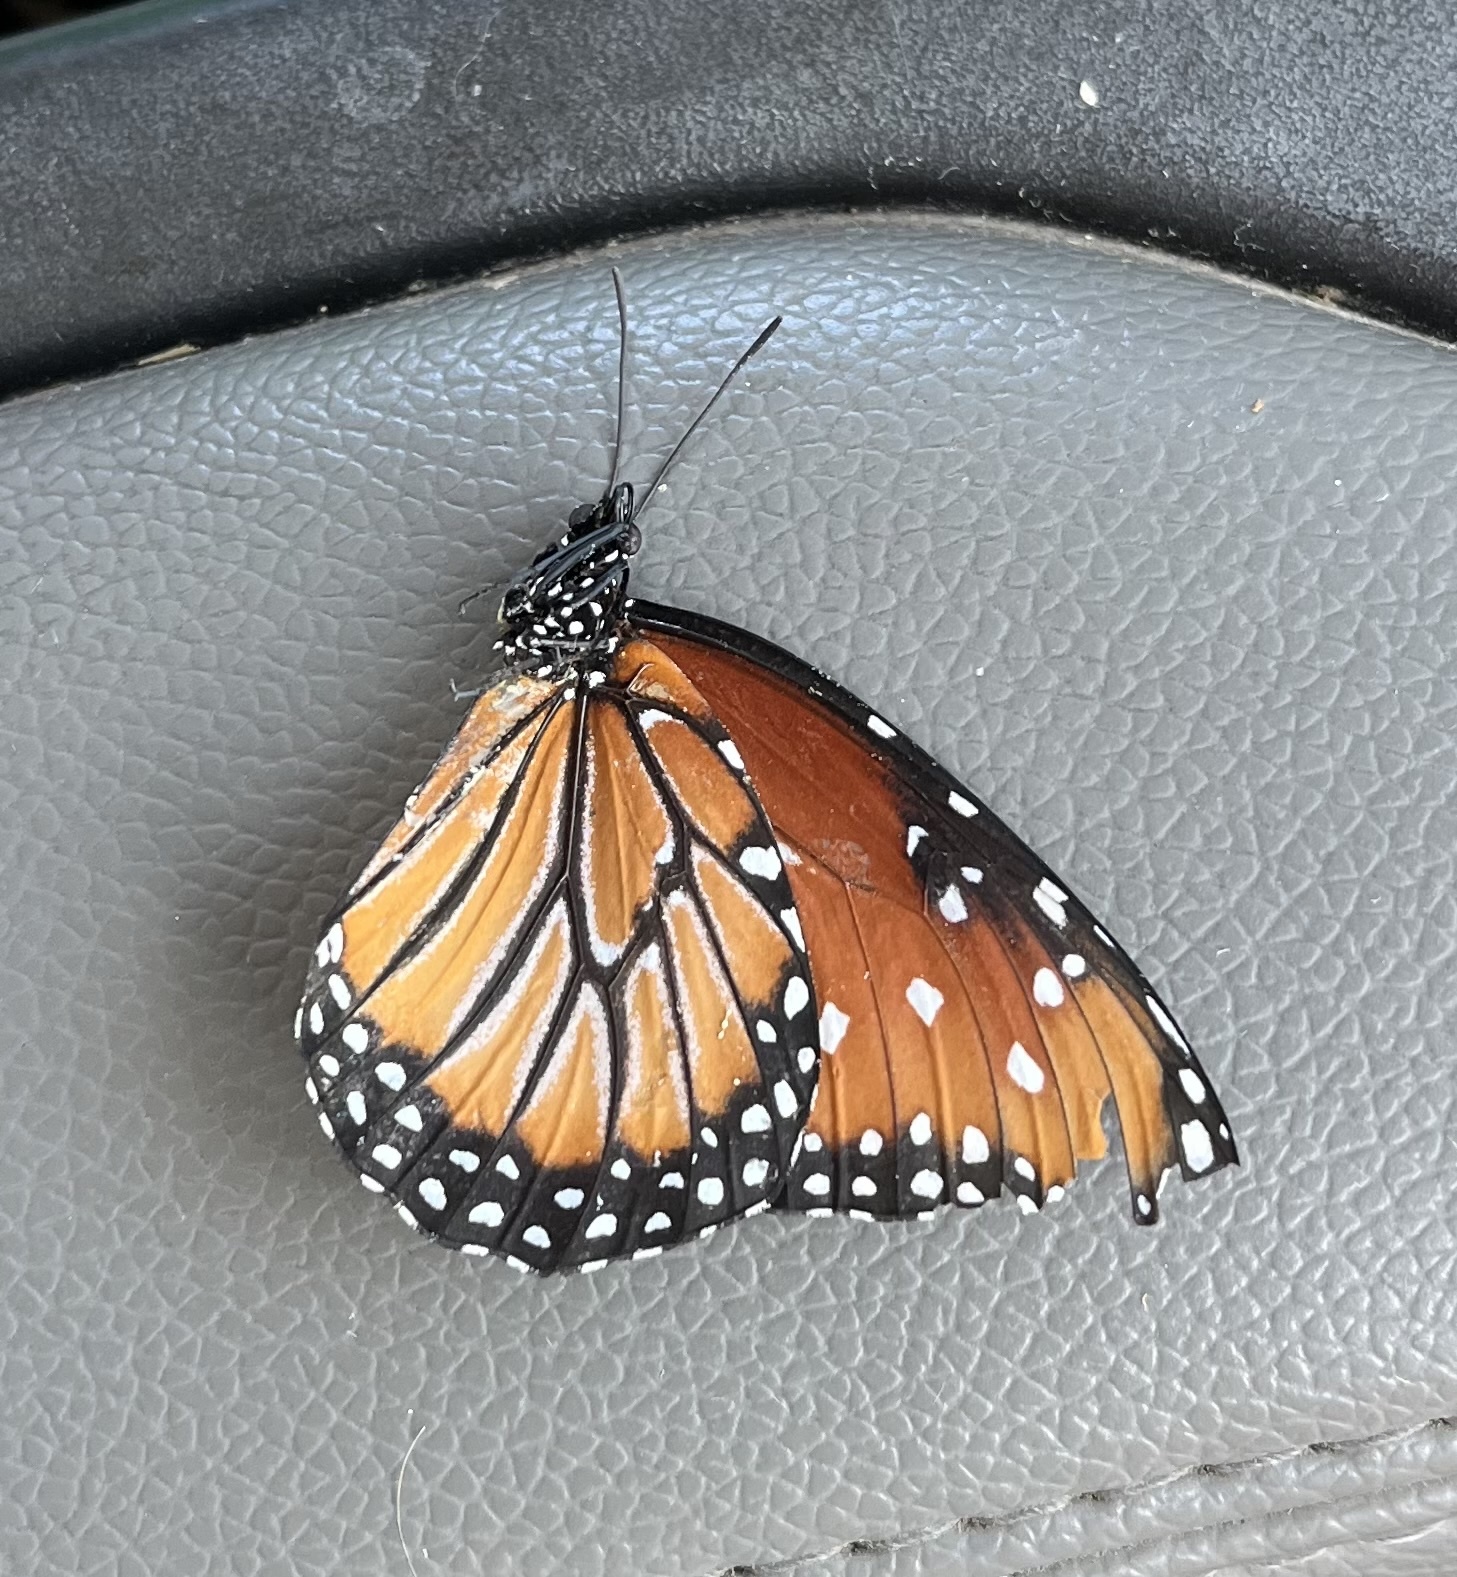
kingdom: Animalia
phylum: Arthropoda
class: Insecta
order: Lepidoptera
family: Nymphalidae
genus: Danaus
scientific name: Danaus gilippus
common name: Queen
